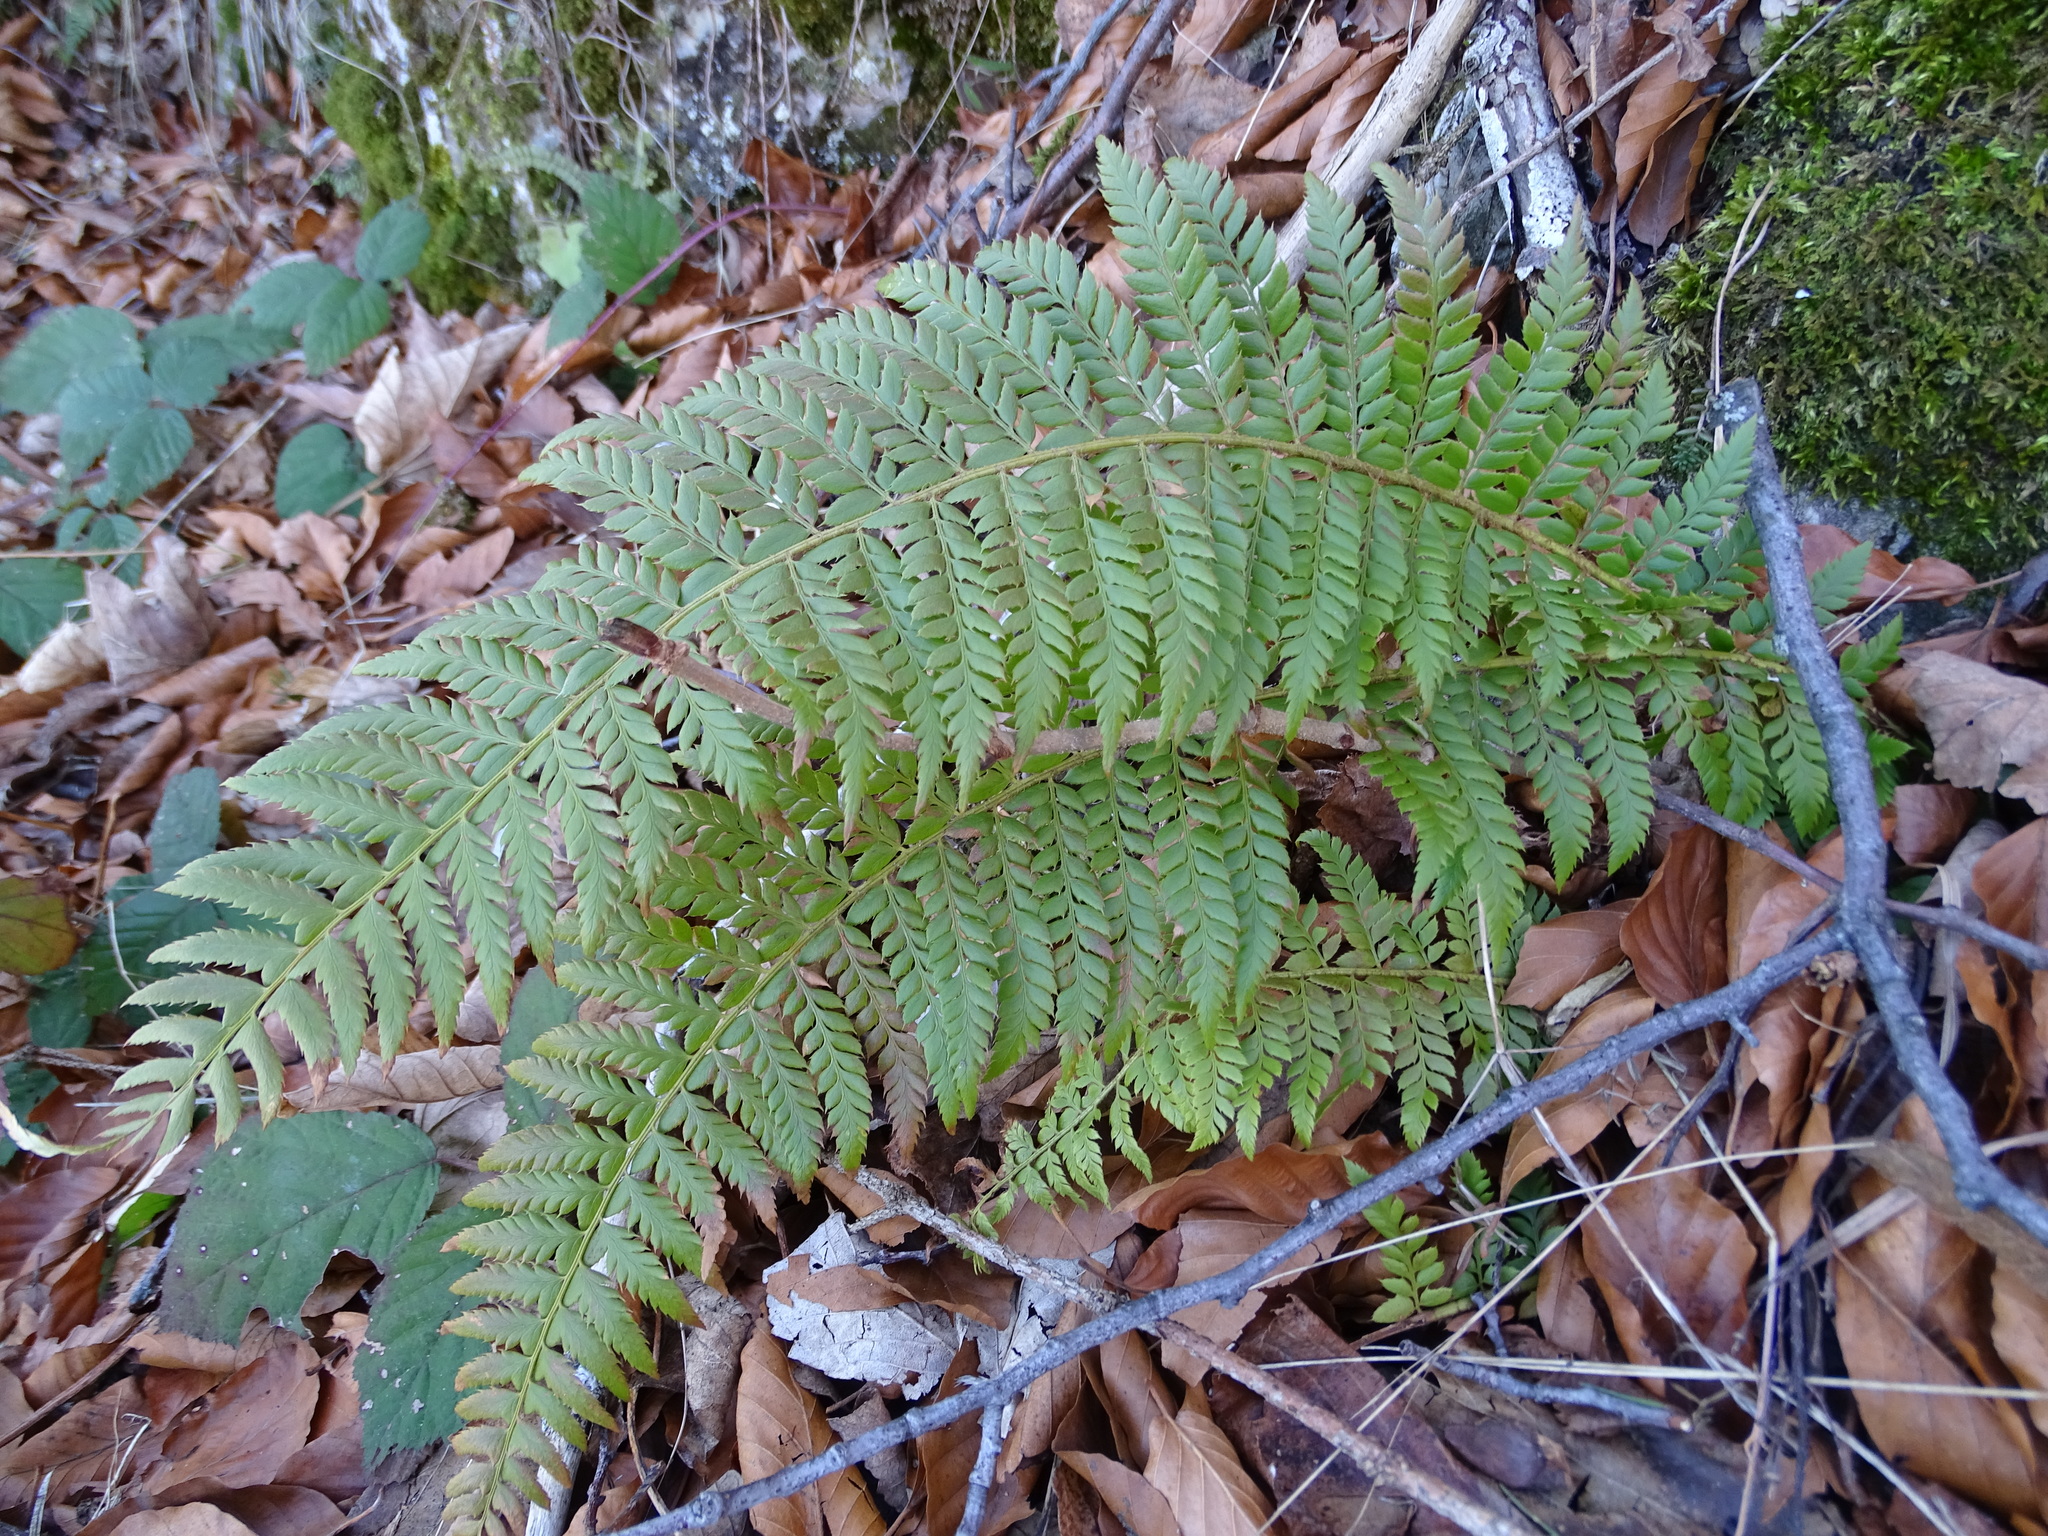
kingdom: Plantae
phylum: Tracheophyta
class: Polypodiopsida
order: Polypodiales
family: Dryopteridaceae
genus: Polystichum
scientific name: Polystichum aculeatum
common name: Hard shield-fern
